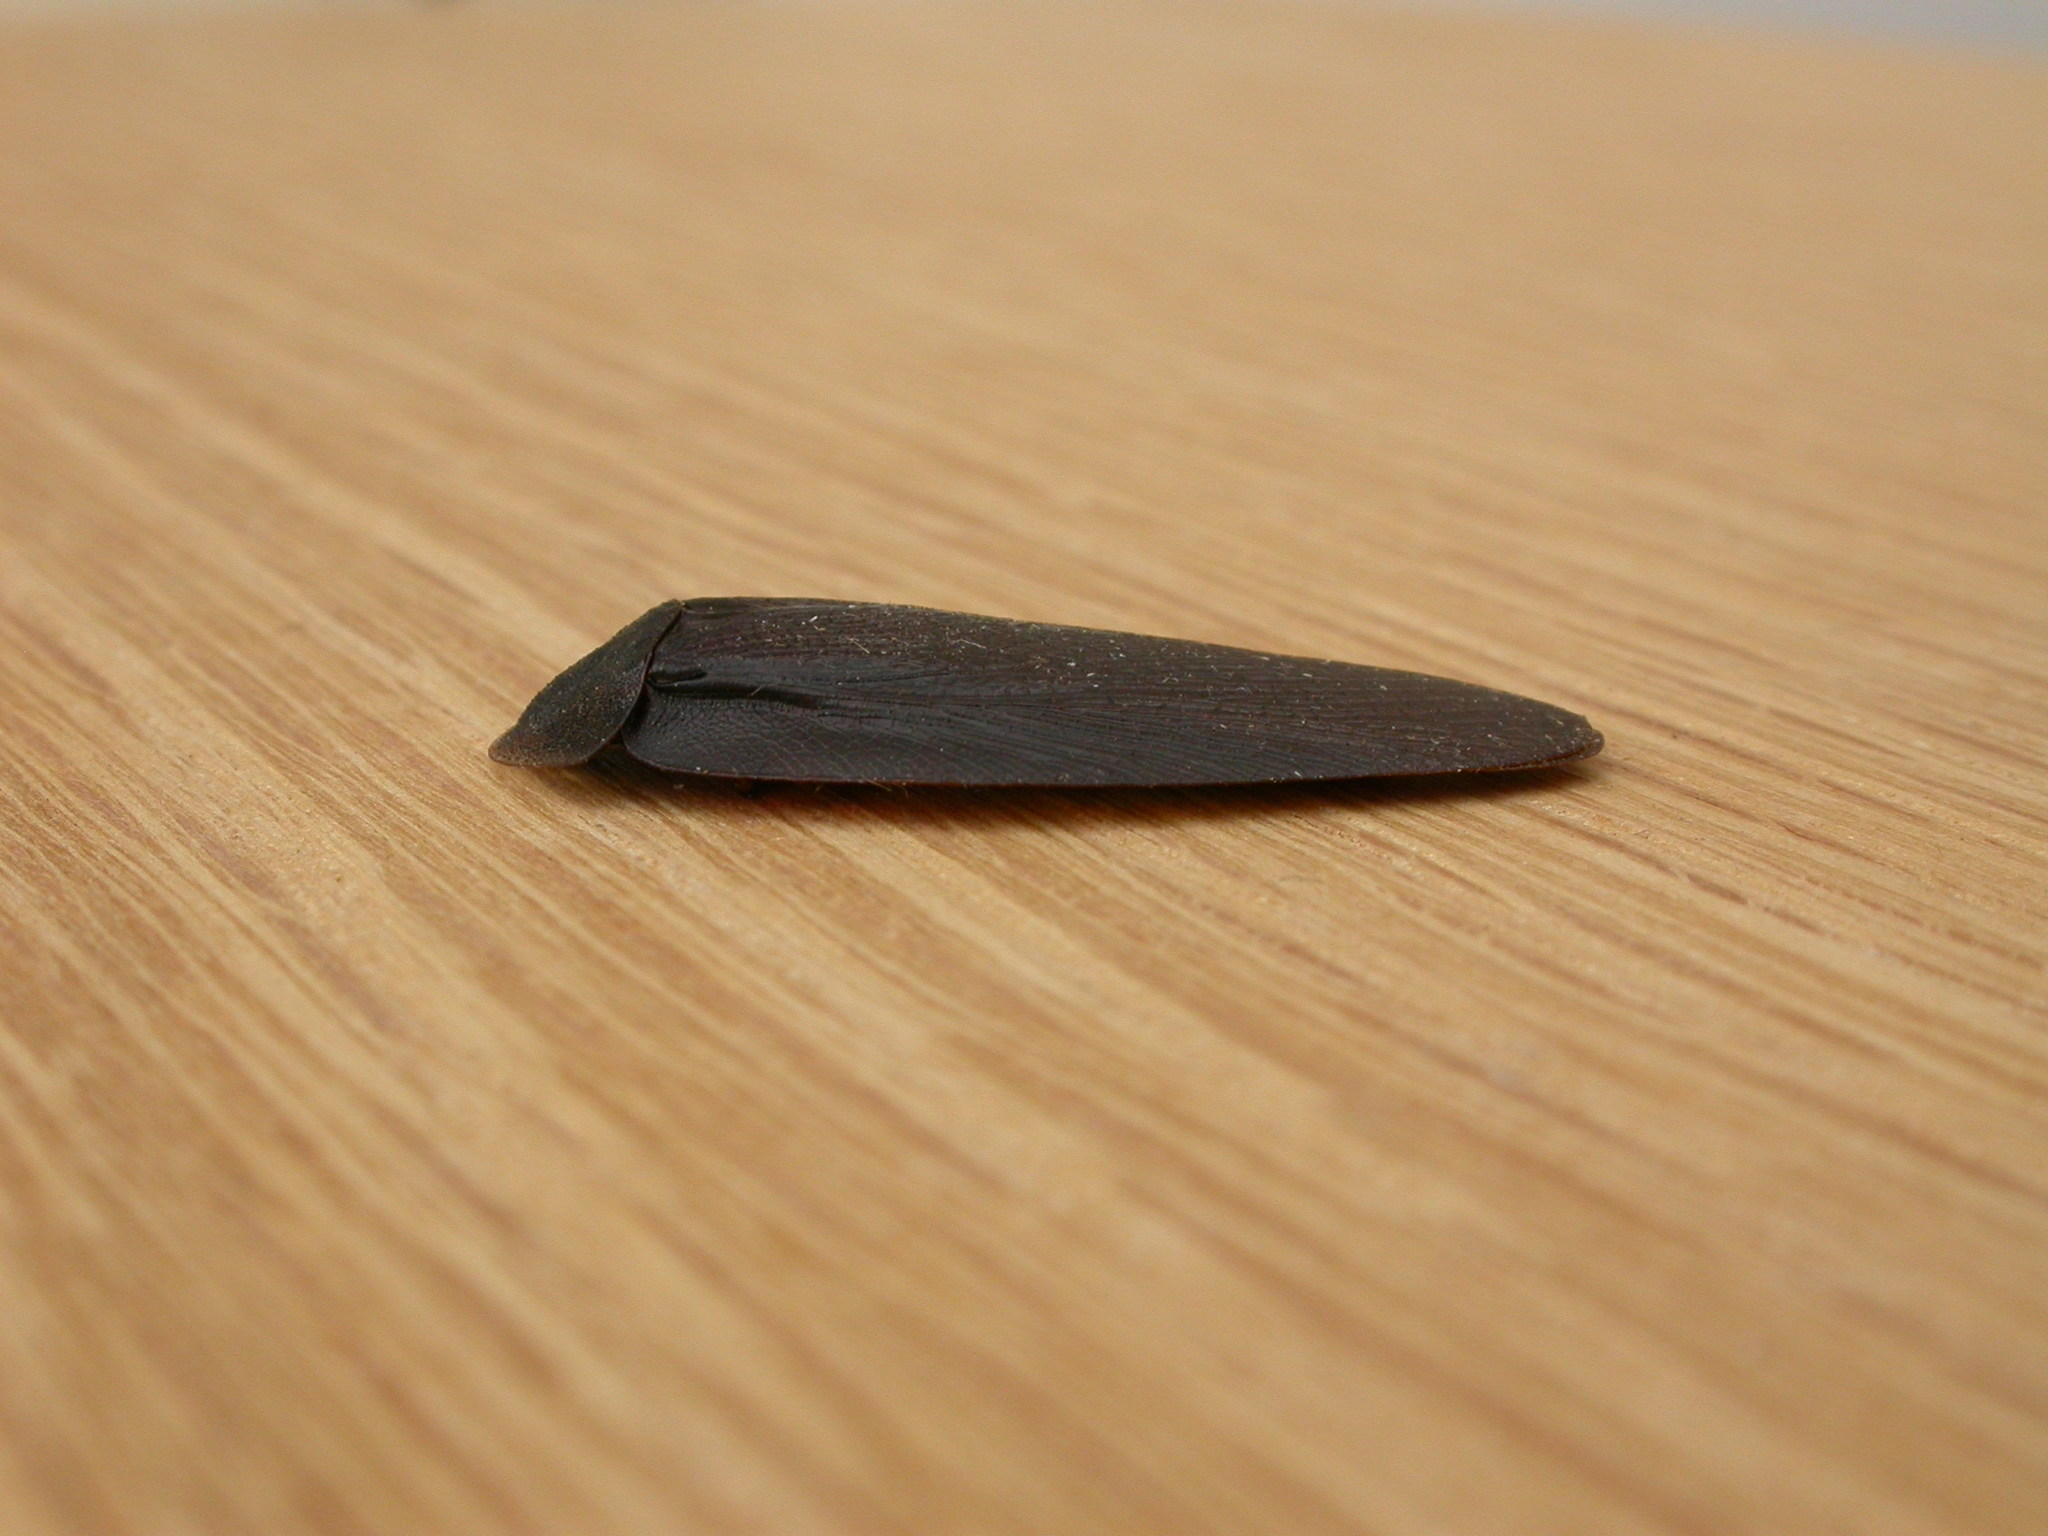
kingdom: Animalia
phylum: Arthropoda
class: Insecta
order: Blattodea
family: Blaberidae
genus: Laxta
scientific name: Laxta granicollis
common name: Bark cockroach
